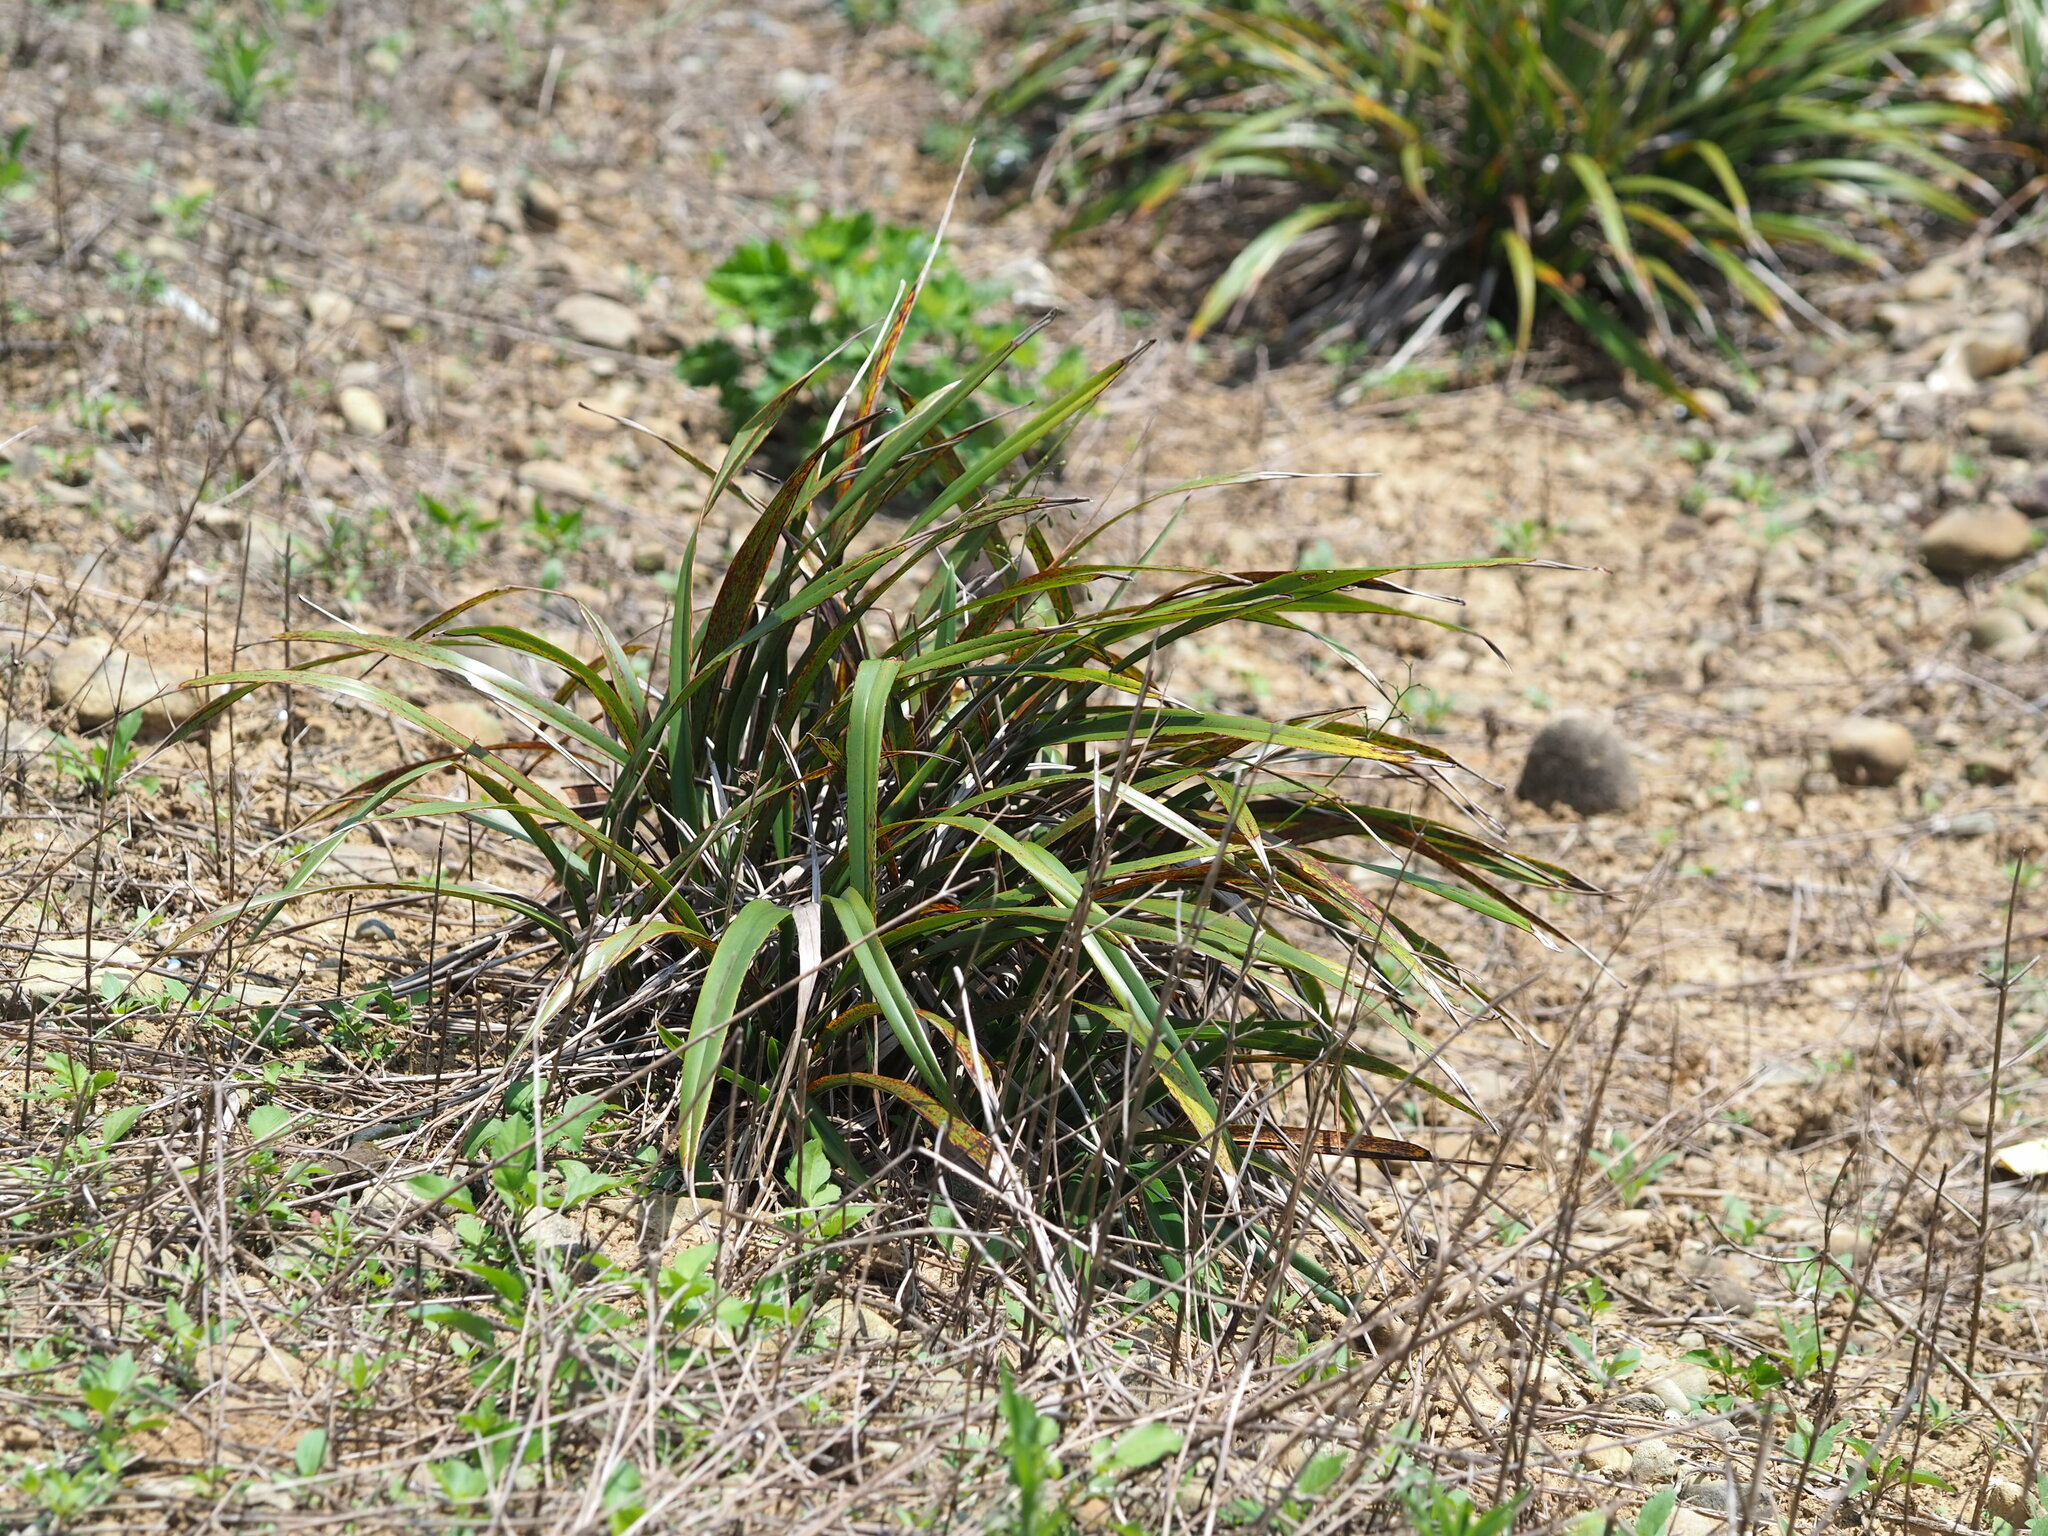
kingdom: Plantae
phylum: Tracheophyta
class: Liliopsida
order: Asparagales
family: Asphodelaceae
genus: Dianella
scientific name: Dianella ensifolia
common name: New zealand lilyplant
